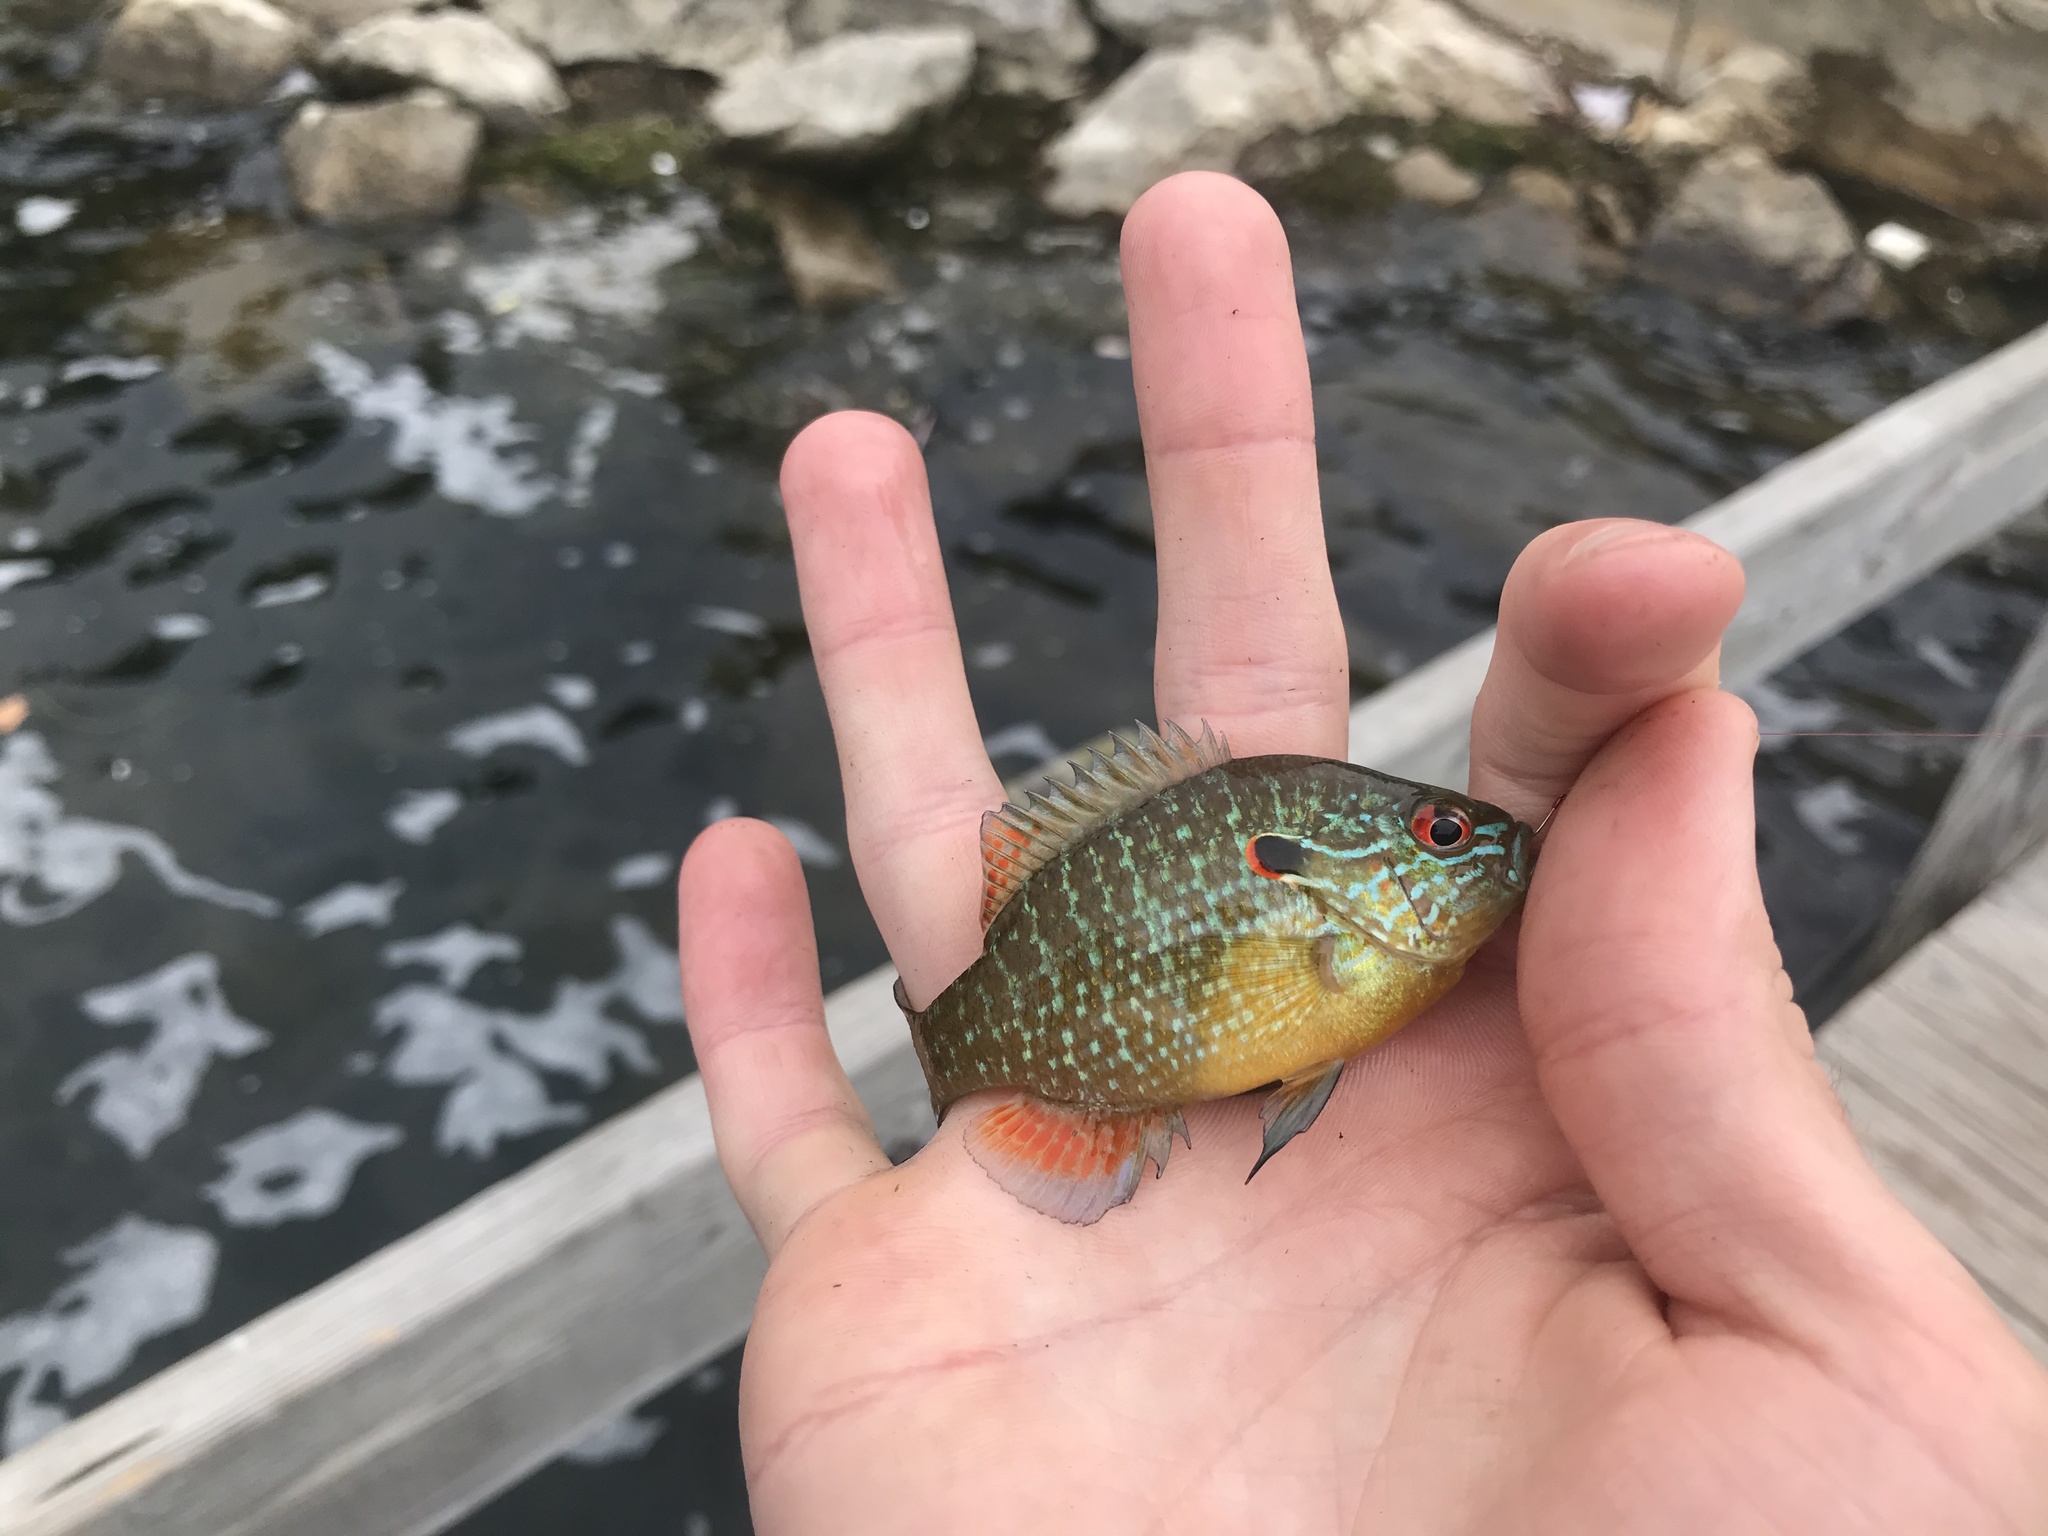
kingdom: Animalia
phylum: Chordata
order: Perciformes
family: Centrarchidae
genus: Lepomis
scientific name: Lepomis peltastes
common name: Northern sunfish
